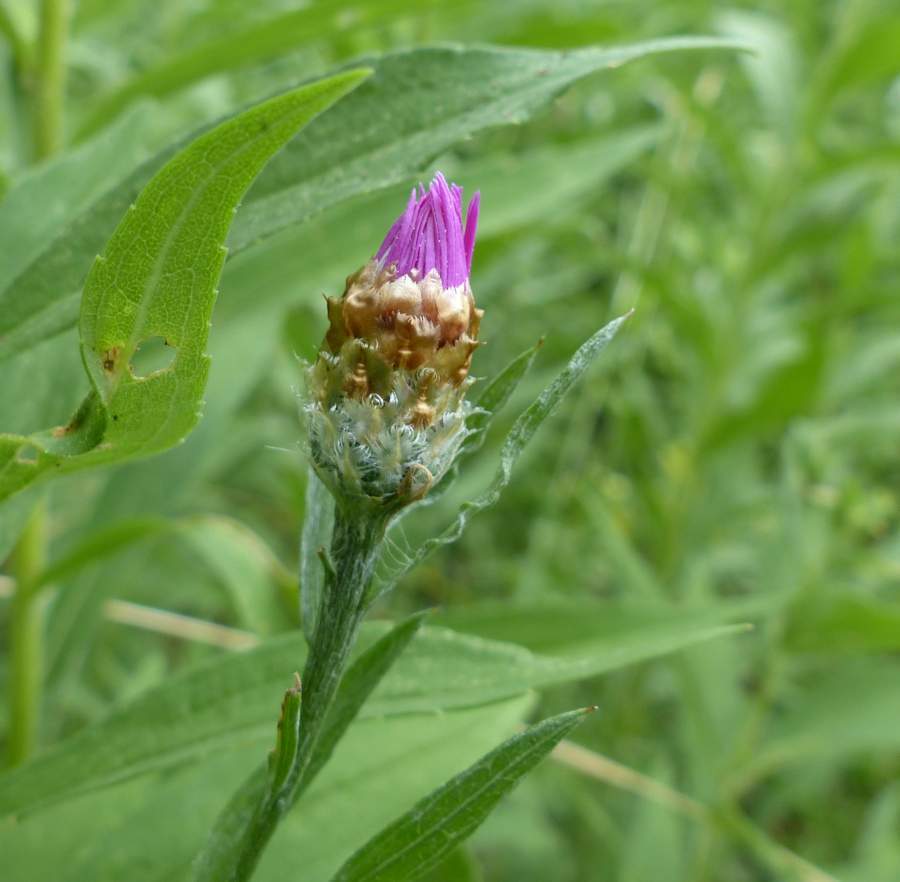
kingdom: Plantae
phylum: Tracheophyta
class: Magnoliopsida
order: Asterales
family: Asteraceae
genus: Centaurea
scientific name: Centaurea jacea
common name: Brown knapweed
